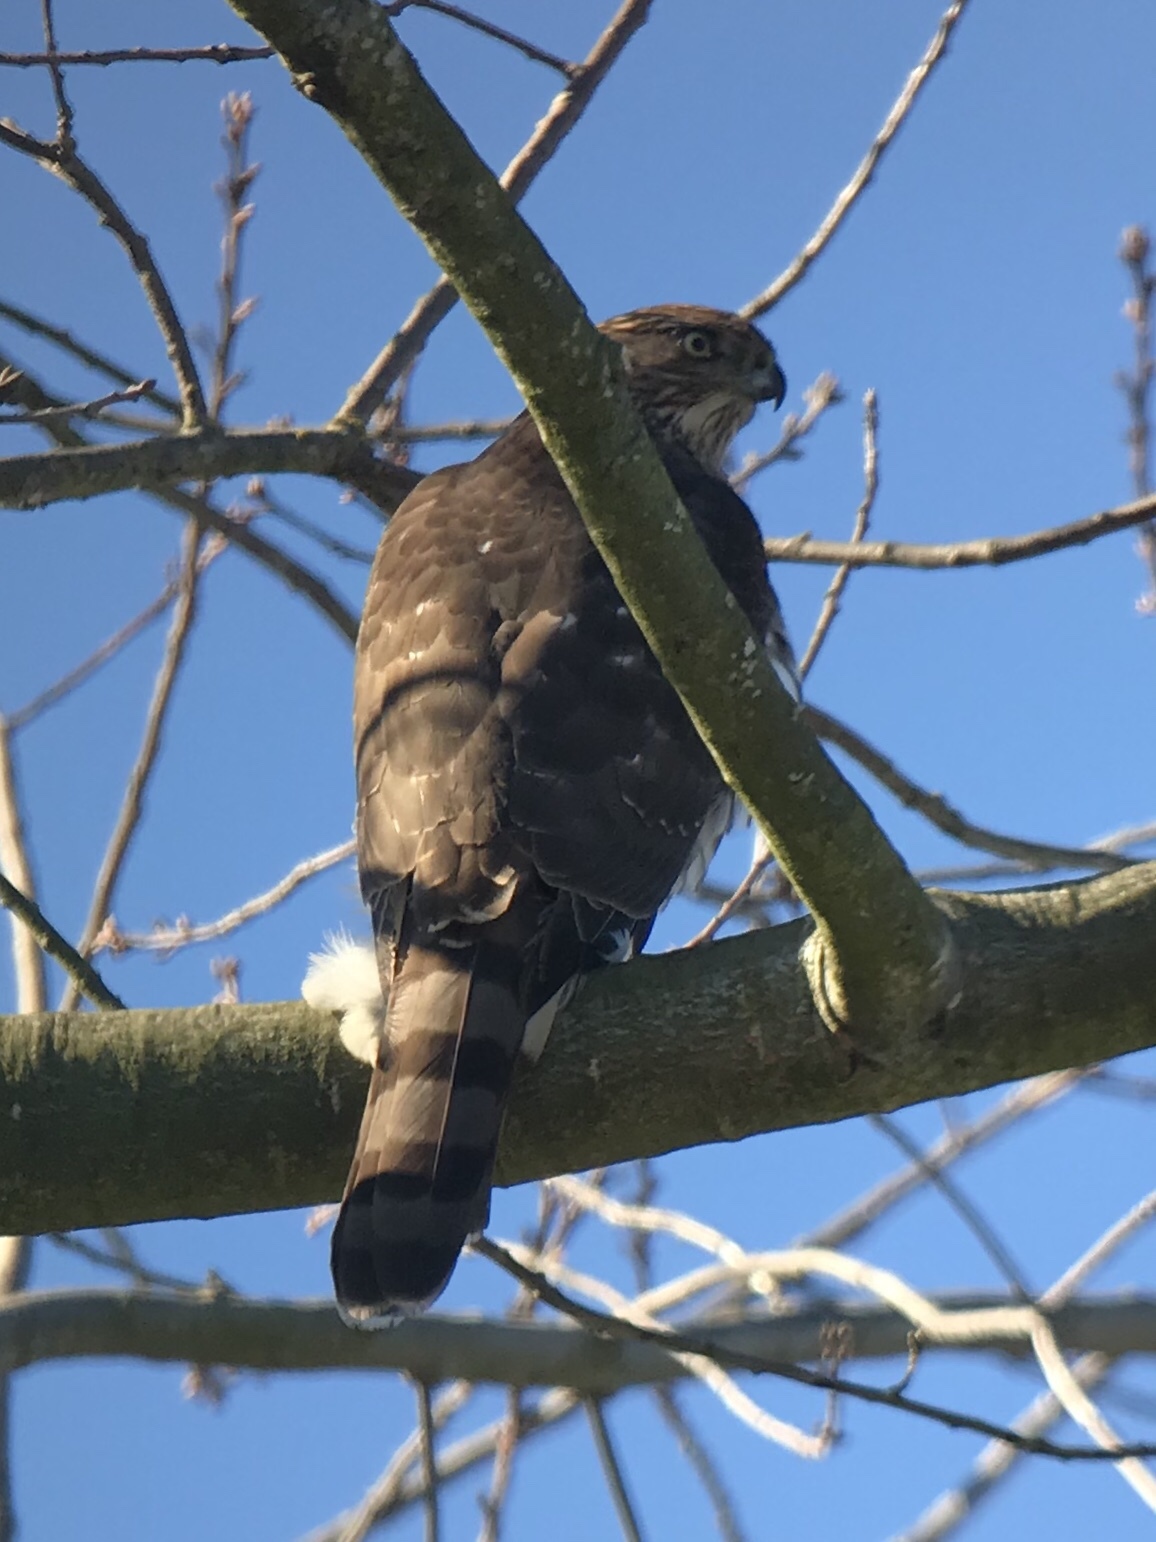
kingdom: Animalia
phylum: Chordata
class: Aves
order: Accipitriformes
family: Accipitridae
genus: Accipiter
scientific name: Accipiter cooperii
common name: Cooper's hawk
